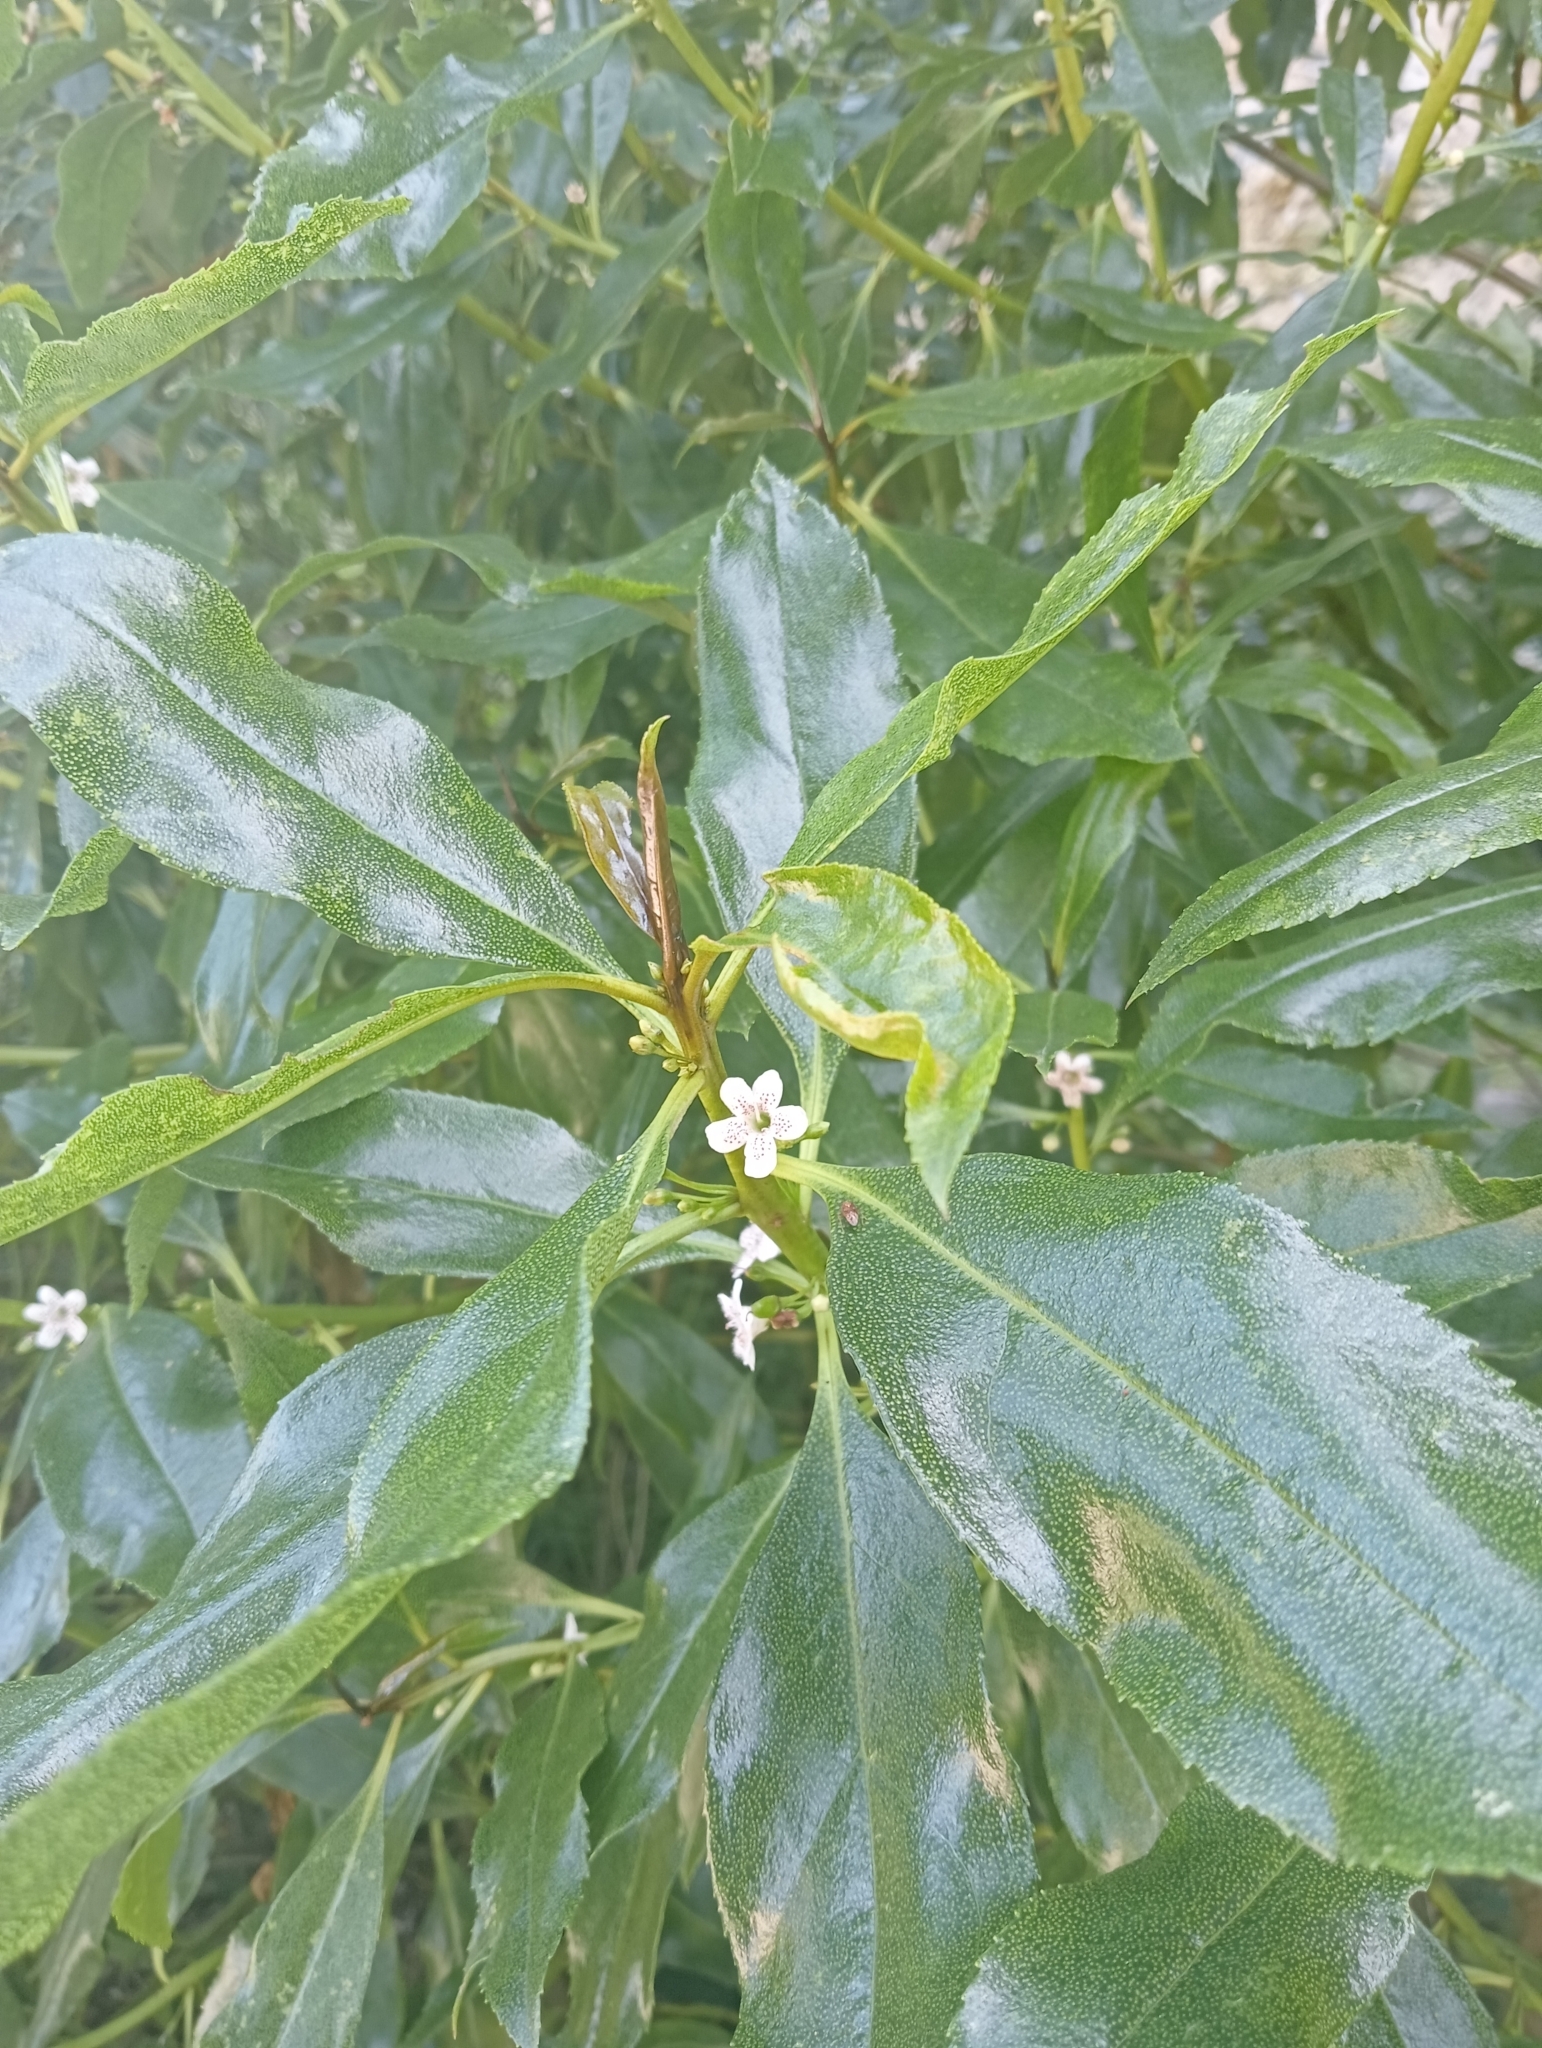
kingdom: Plantae
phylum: Tracheophyta
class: Magnoliopsida
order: Lamiales
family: Scrophulariaceae
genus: Myoporum
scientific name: Myoporum laetum
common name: Ngaio tree
